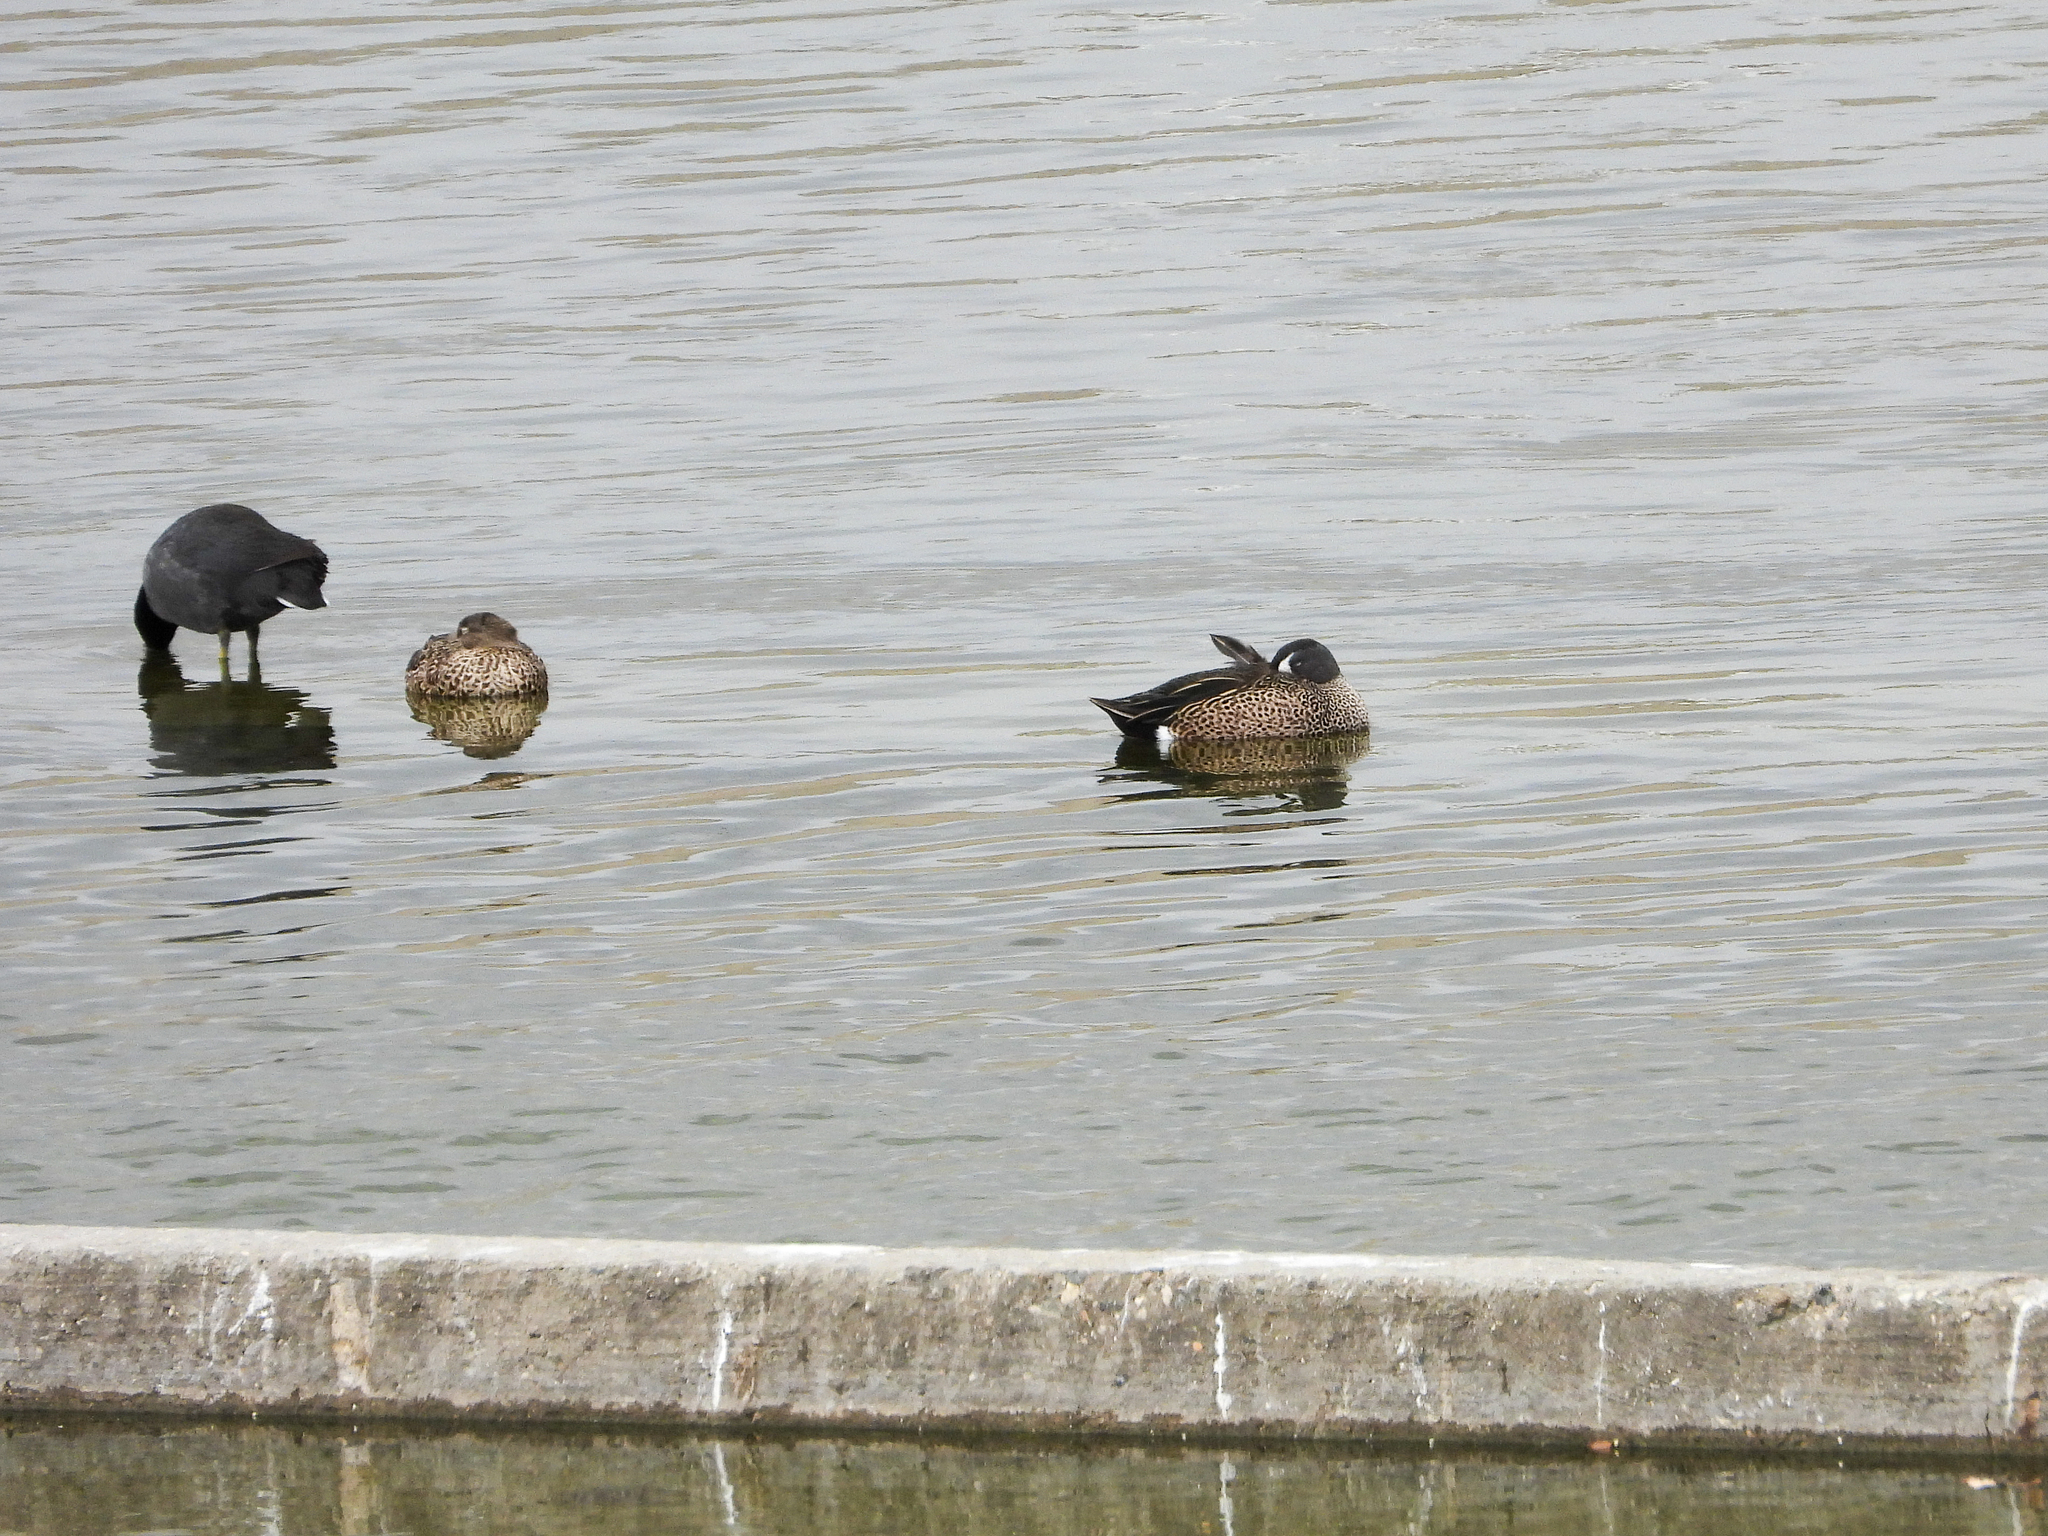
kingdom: Animalia
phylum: Chordata
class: Aves
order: Anseriformes
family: Anatidae
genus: Spatula
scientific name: Spatula discors
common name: Blue-winged teal
